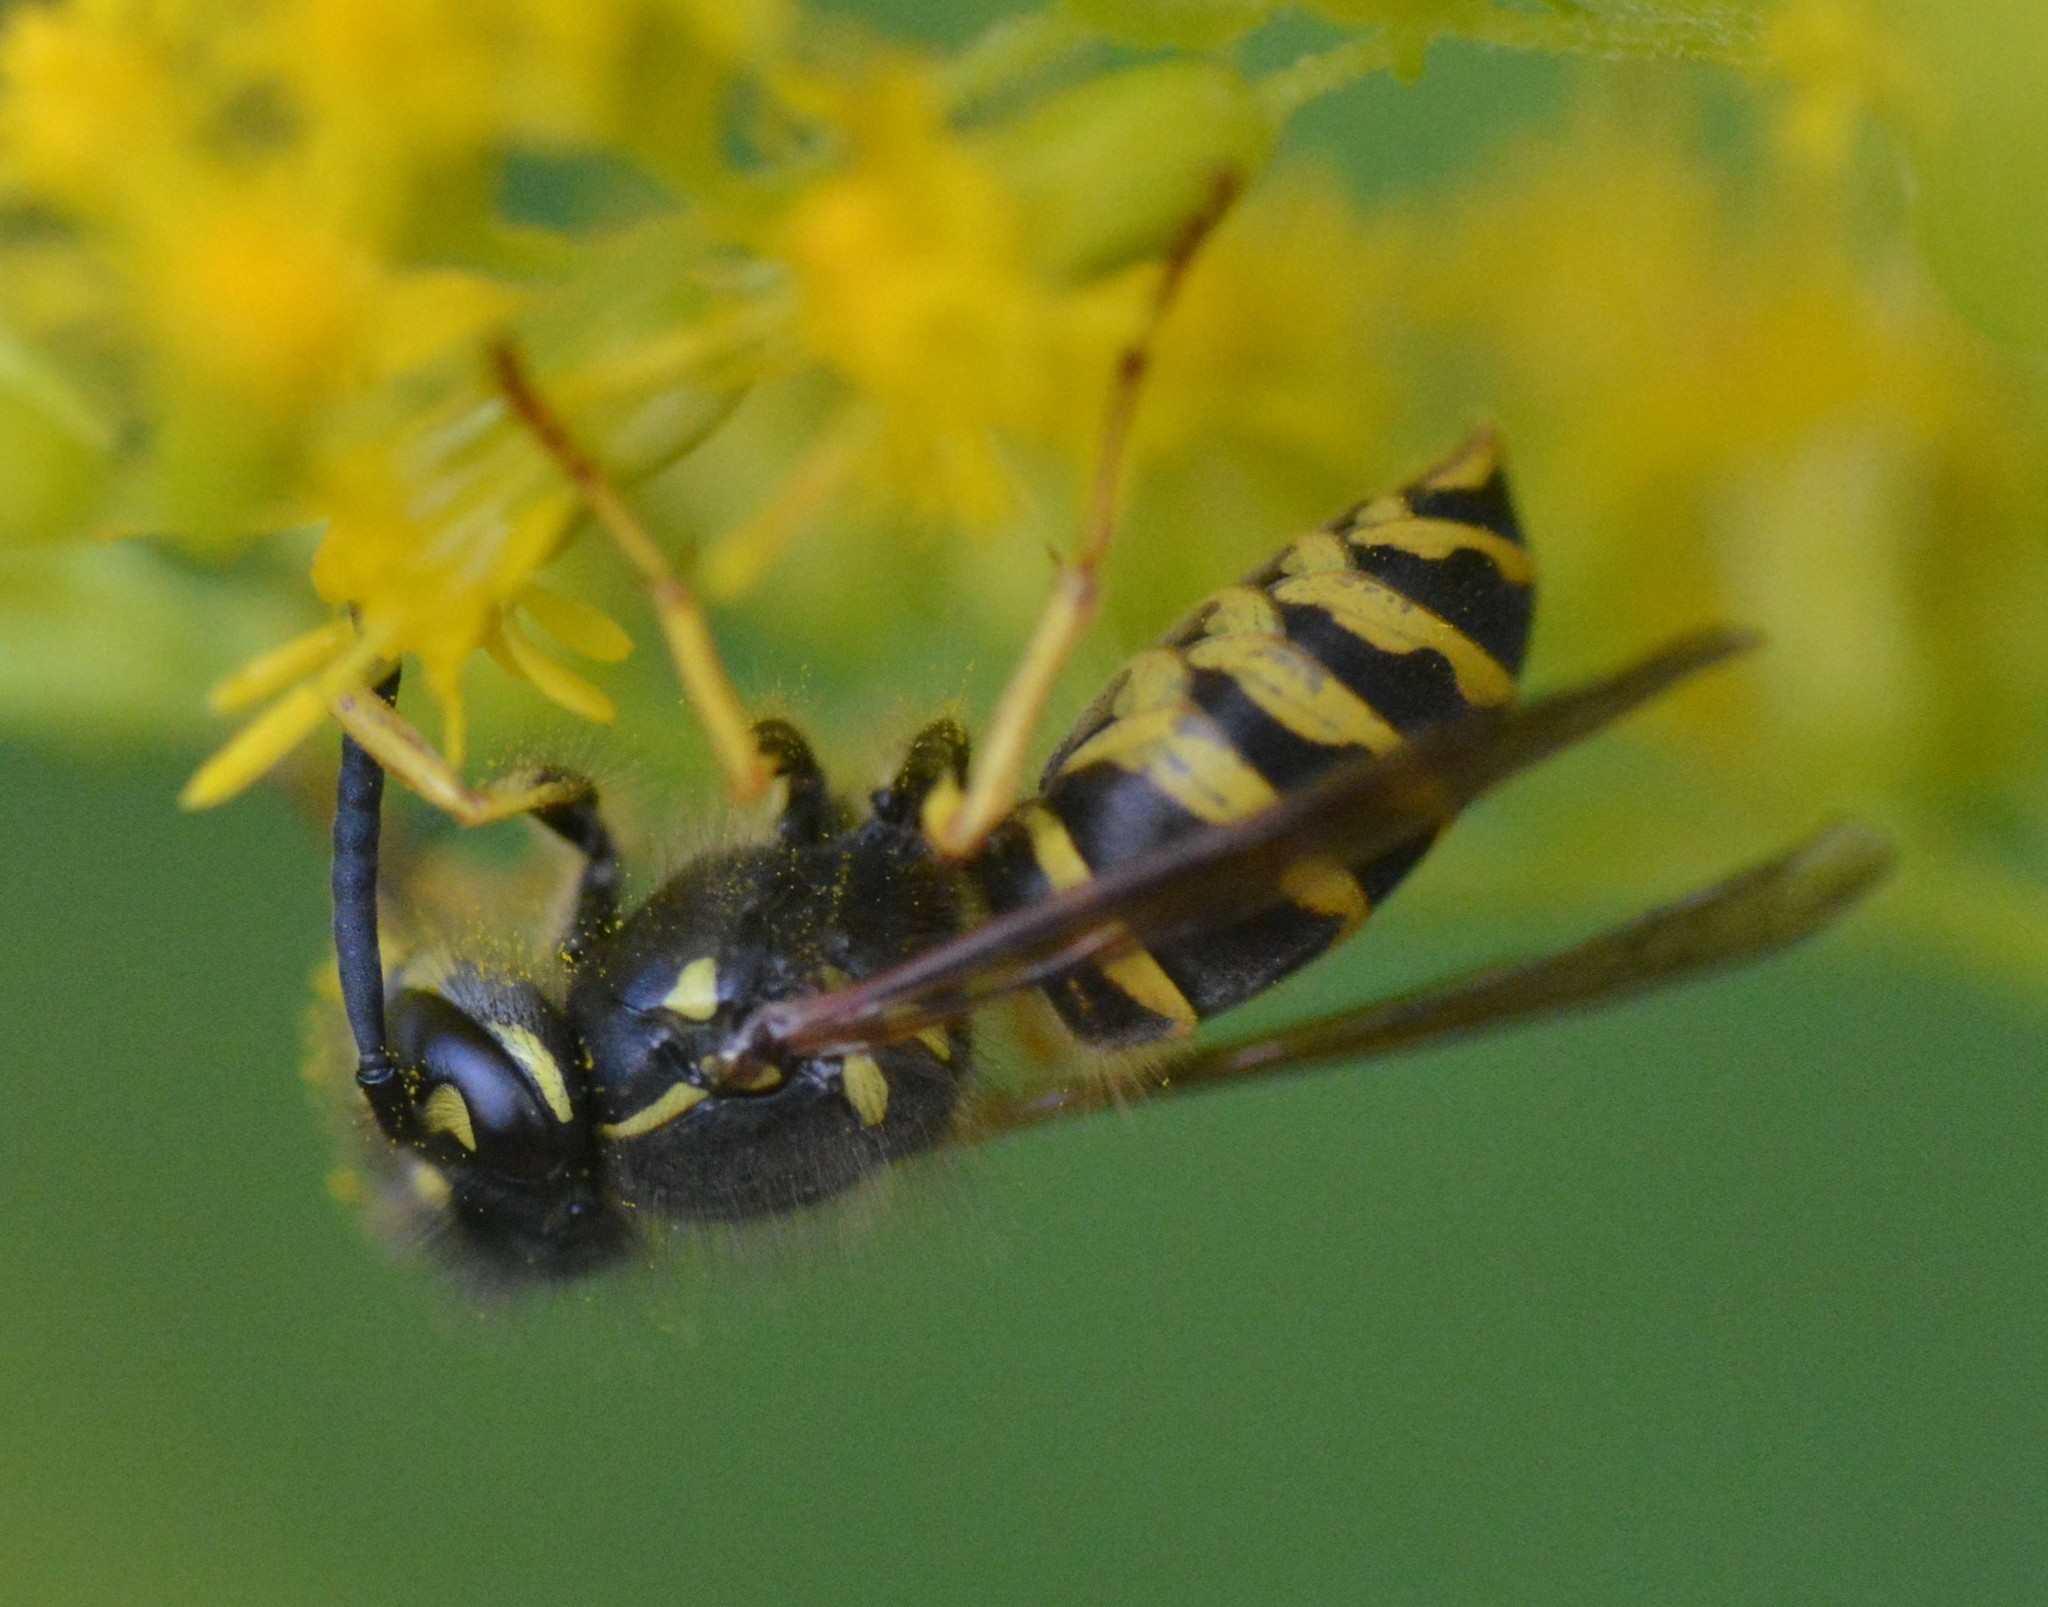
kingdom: Animalia
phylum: Arthropoda
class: Insecta
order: Hymenoptera
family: Vespidae
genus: Vespula
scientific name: Vespula alascensis
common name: Alaska yellowjacket
